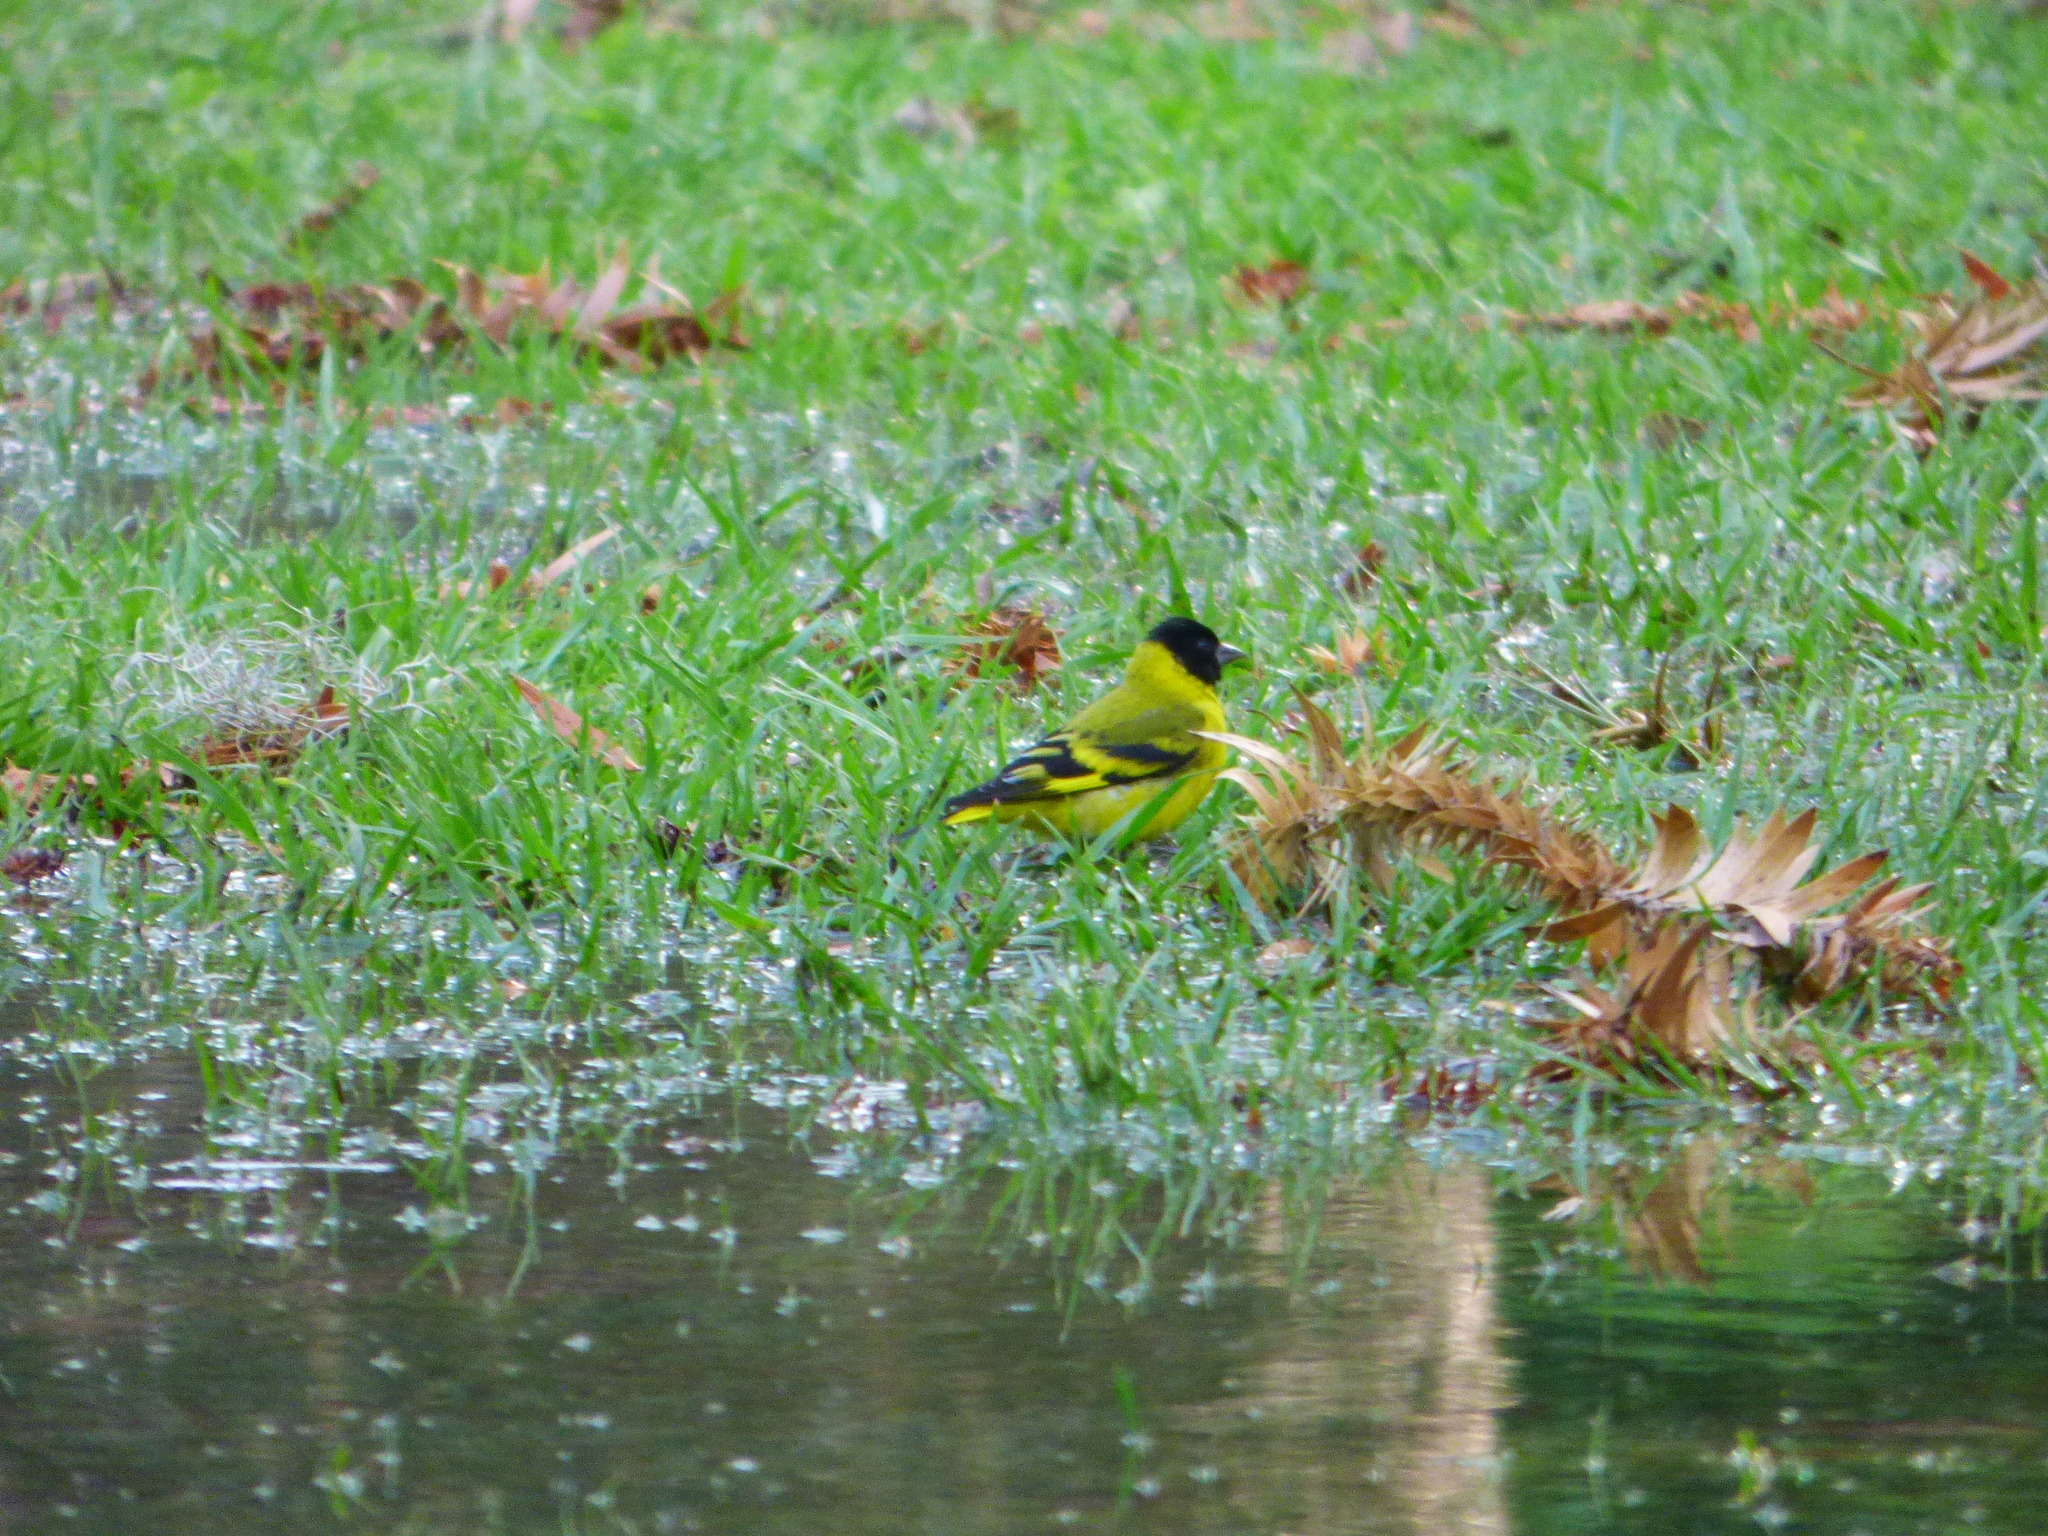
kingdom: Animalia
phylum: Chordata
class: Aves
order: Passeriformes
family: Fringillidae
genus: Spinus
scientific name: Spinus magellanicus
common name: Hooded siskin
